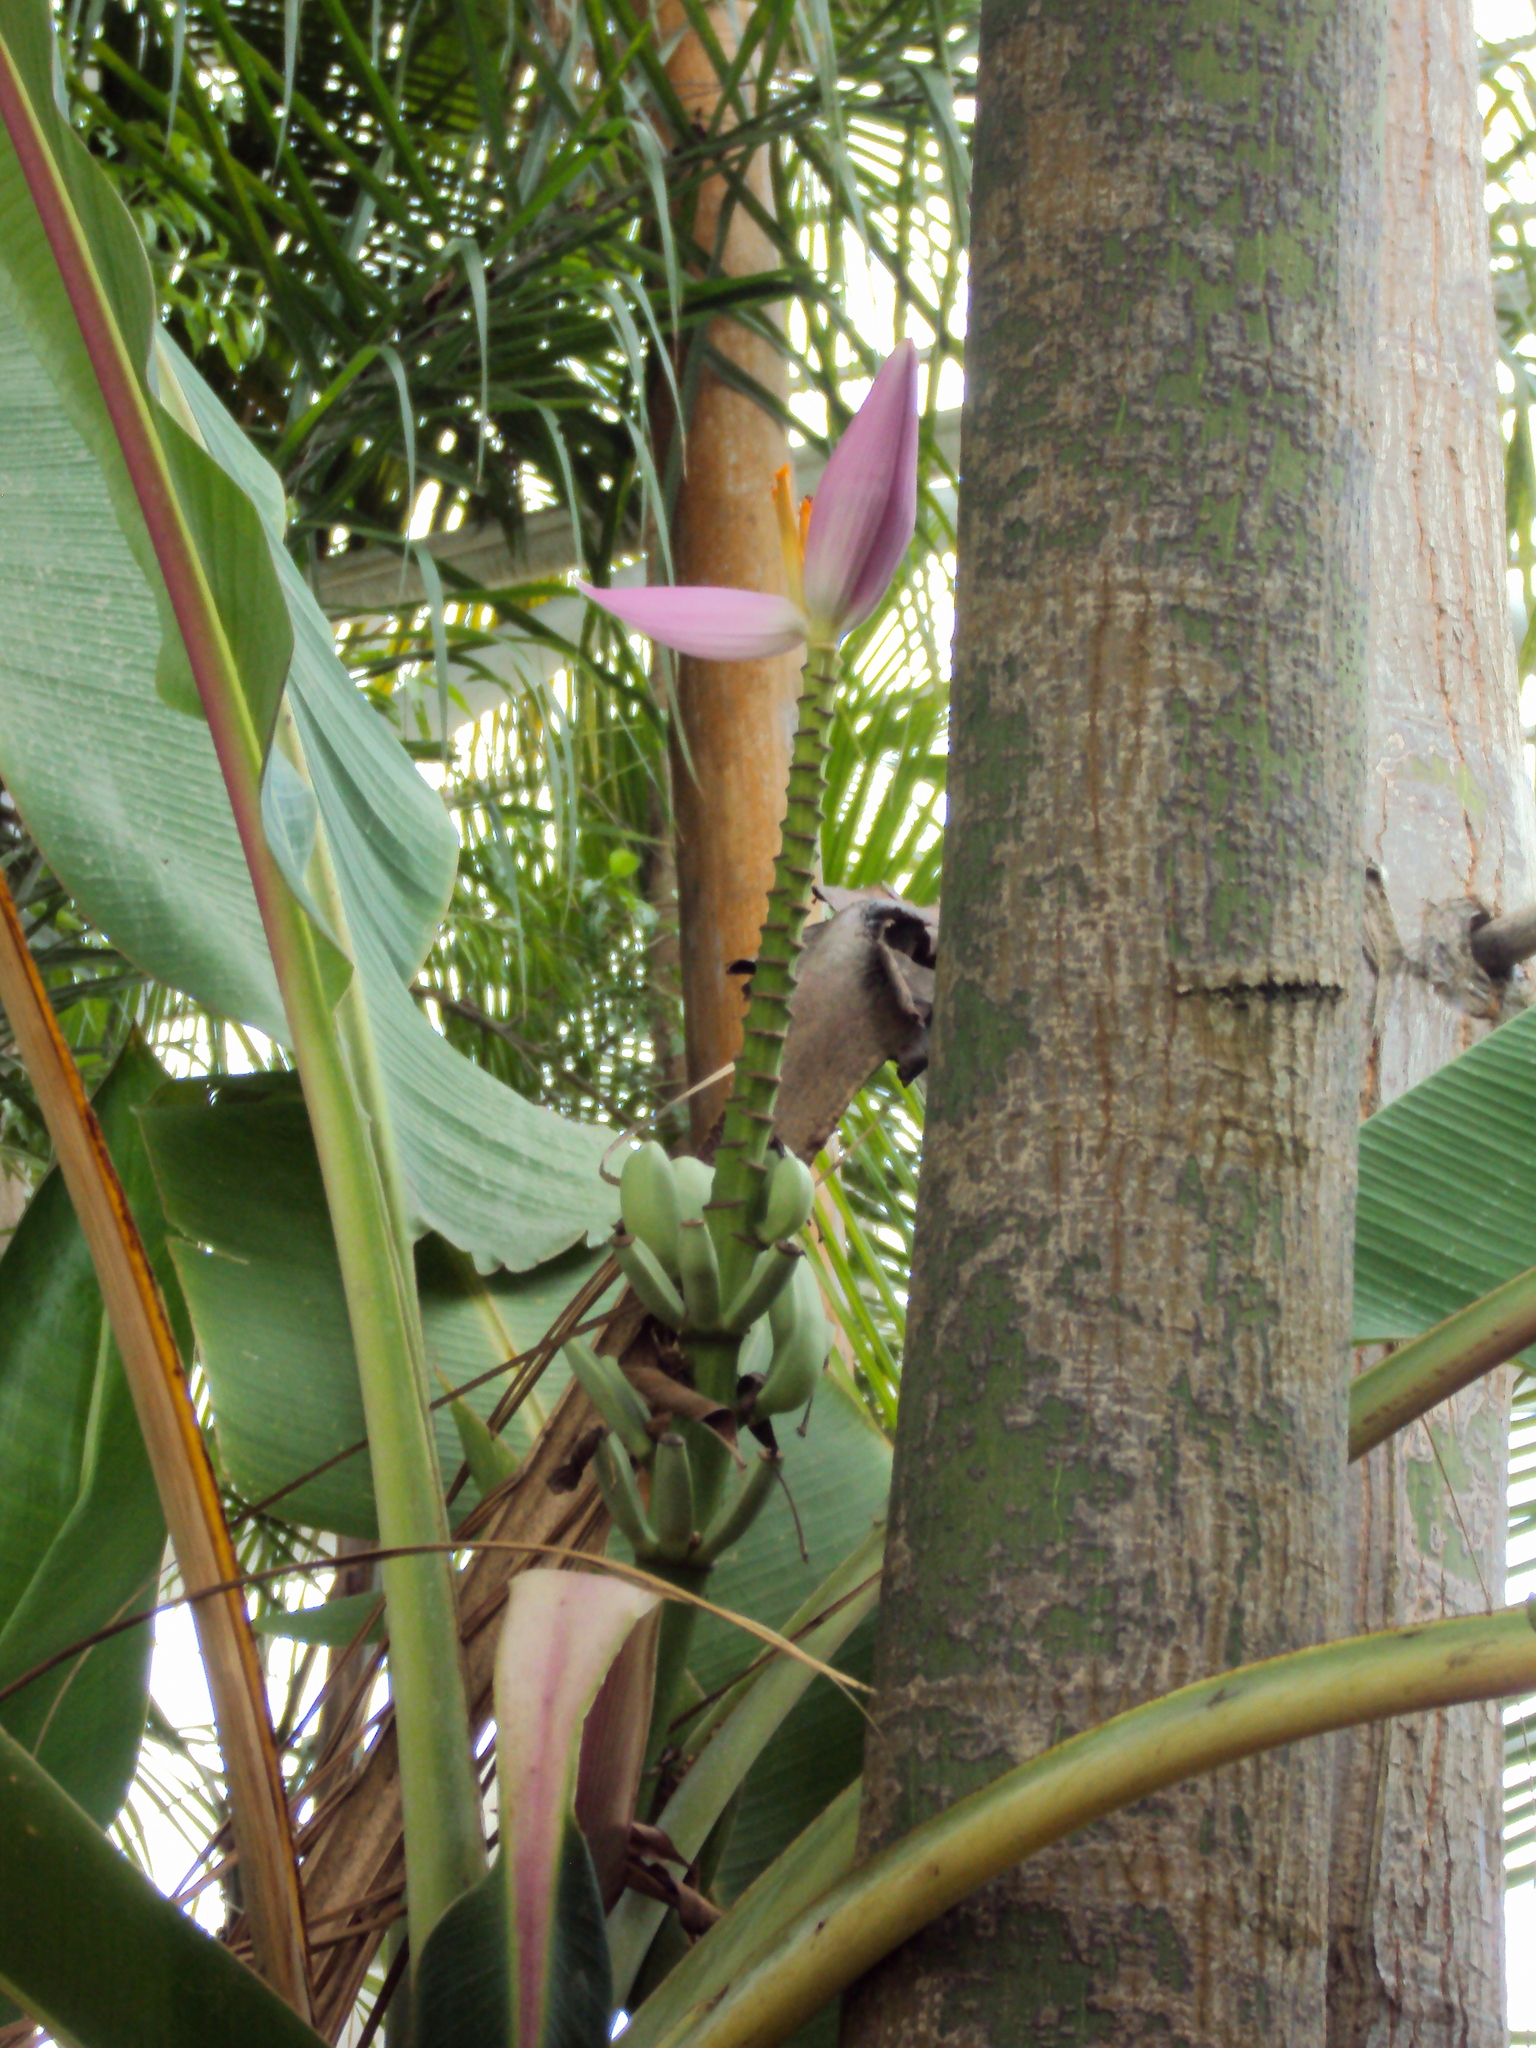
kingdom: Plantae
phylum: Tracheophyta
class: Liliopsida
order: Zingiberales
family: Musaceae
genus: Musa
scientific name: Musa ornata
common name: Flowering banana
